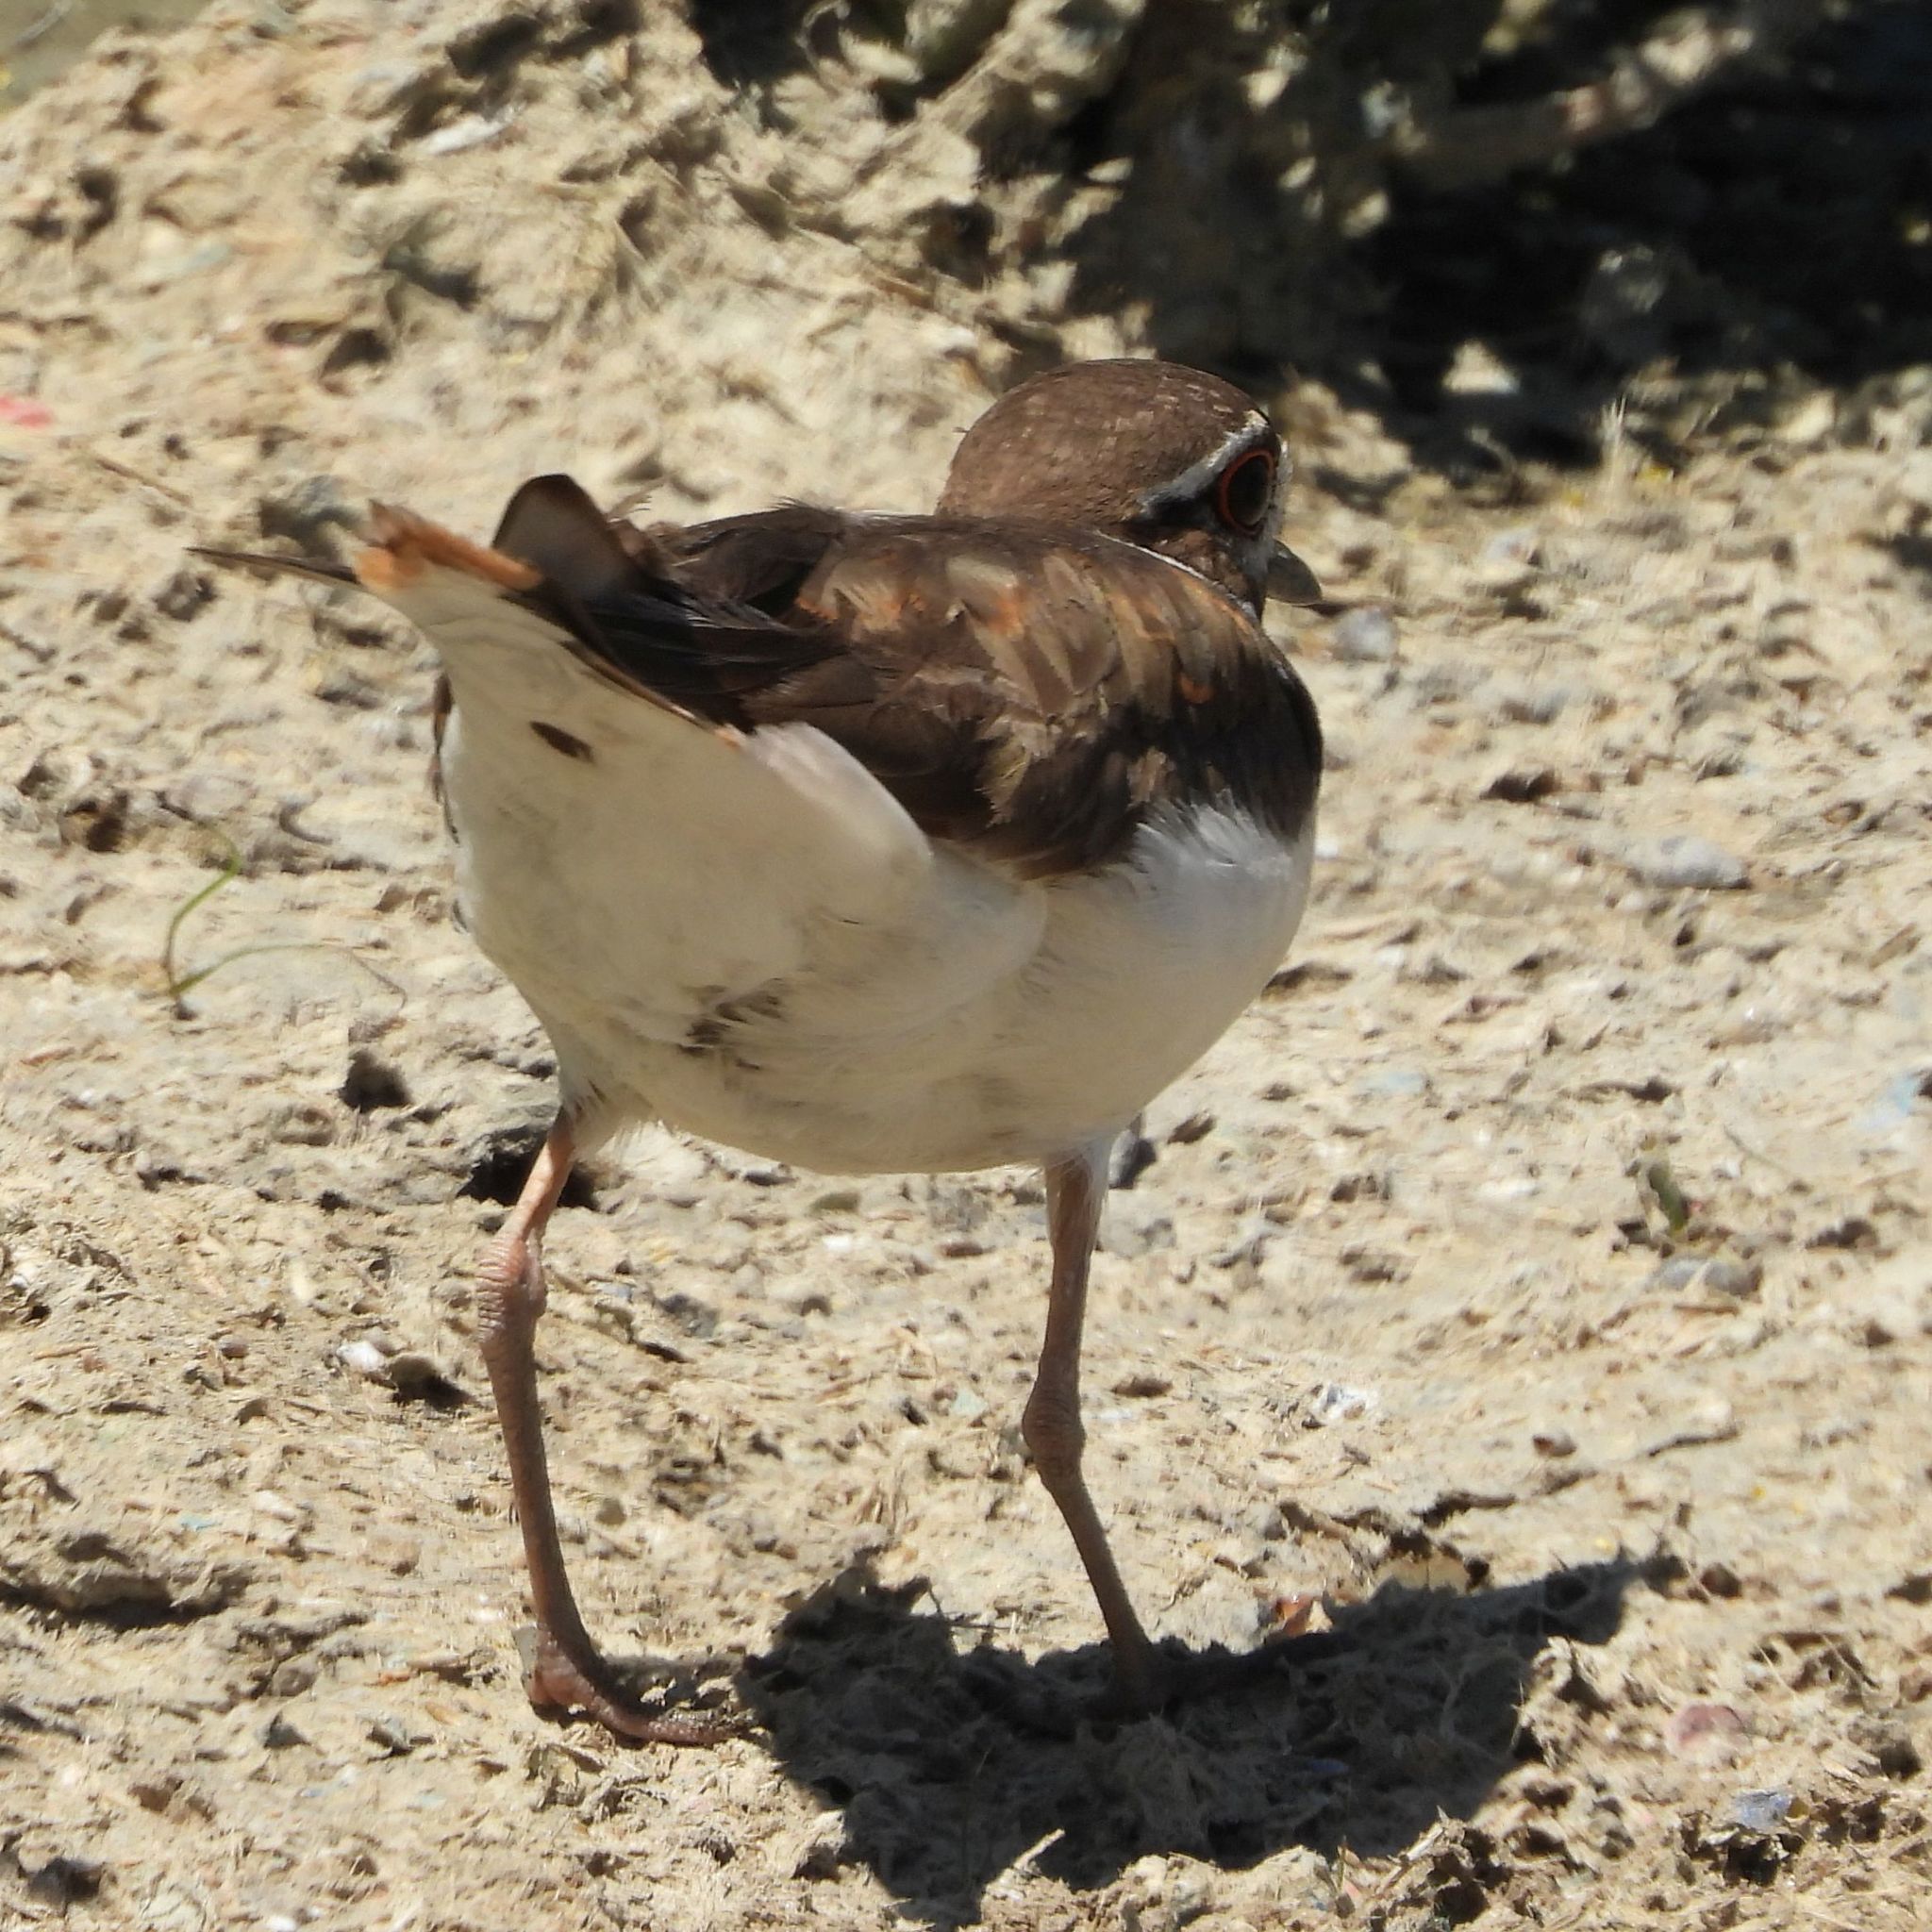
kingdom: Animalia
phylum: Chordata
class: Aves
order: Charadriiformes
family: Charadriidae
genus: Charadrius
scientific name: Charadrius vociferus
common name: Killdeer
